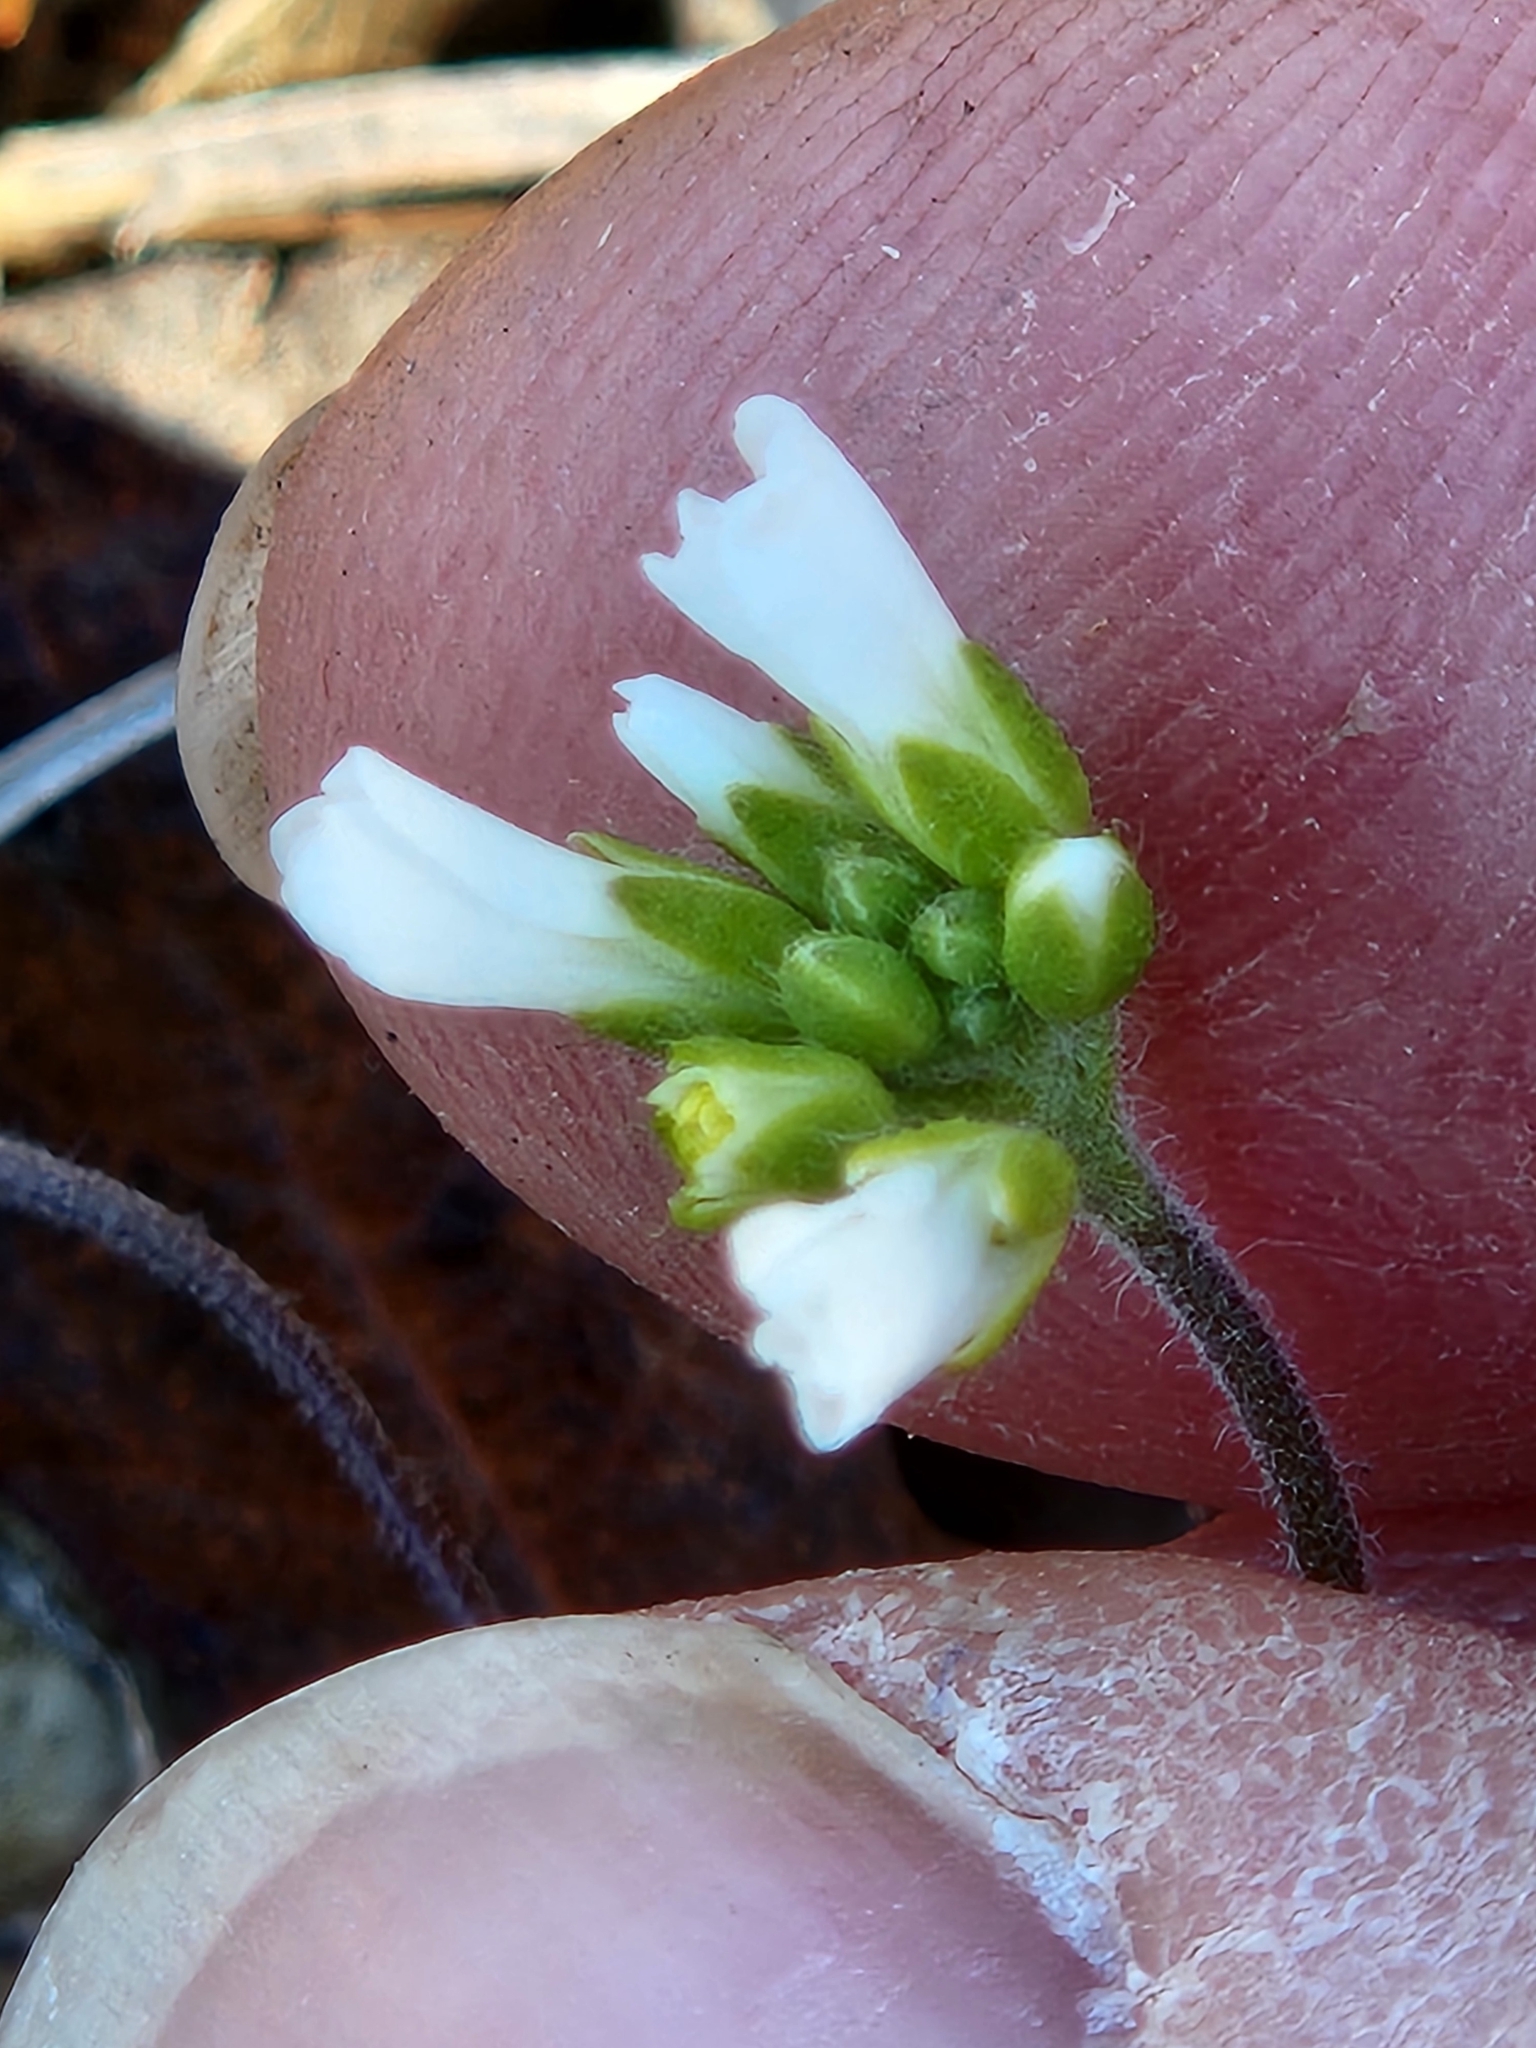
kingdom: Plantae
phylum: Tracheophyta
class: Magnoliopsida
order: Brassicales
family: Brassicaceae
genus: Tomostima
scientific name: Tomostima cuneifolia
